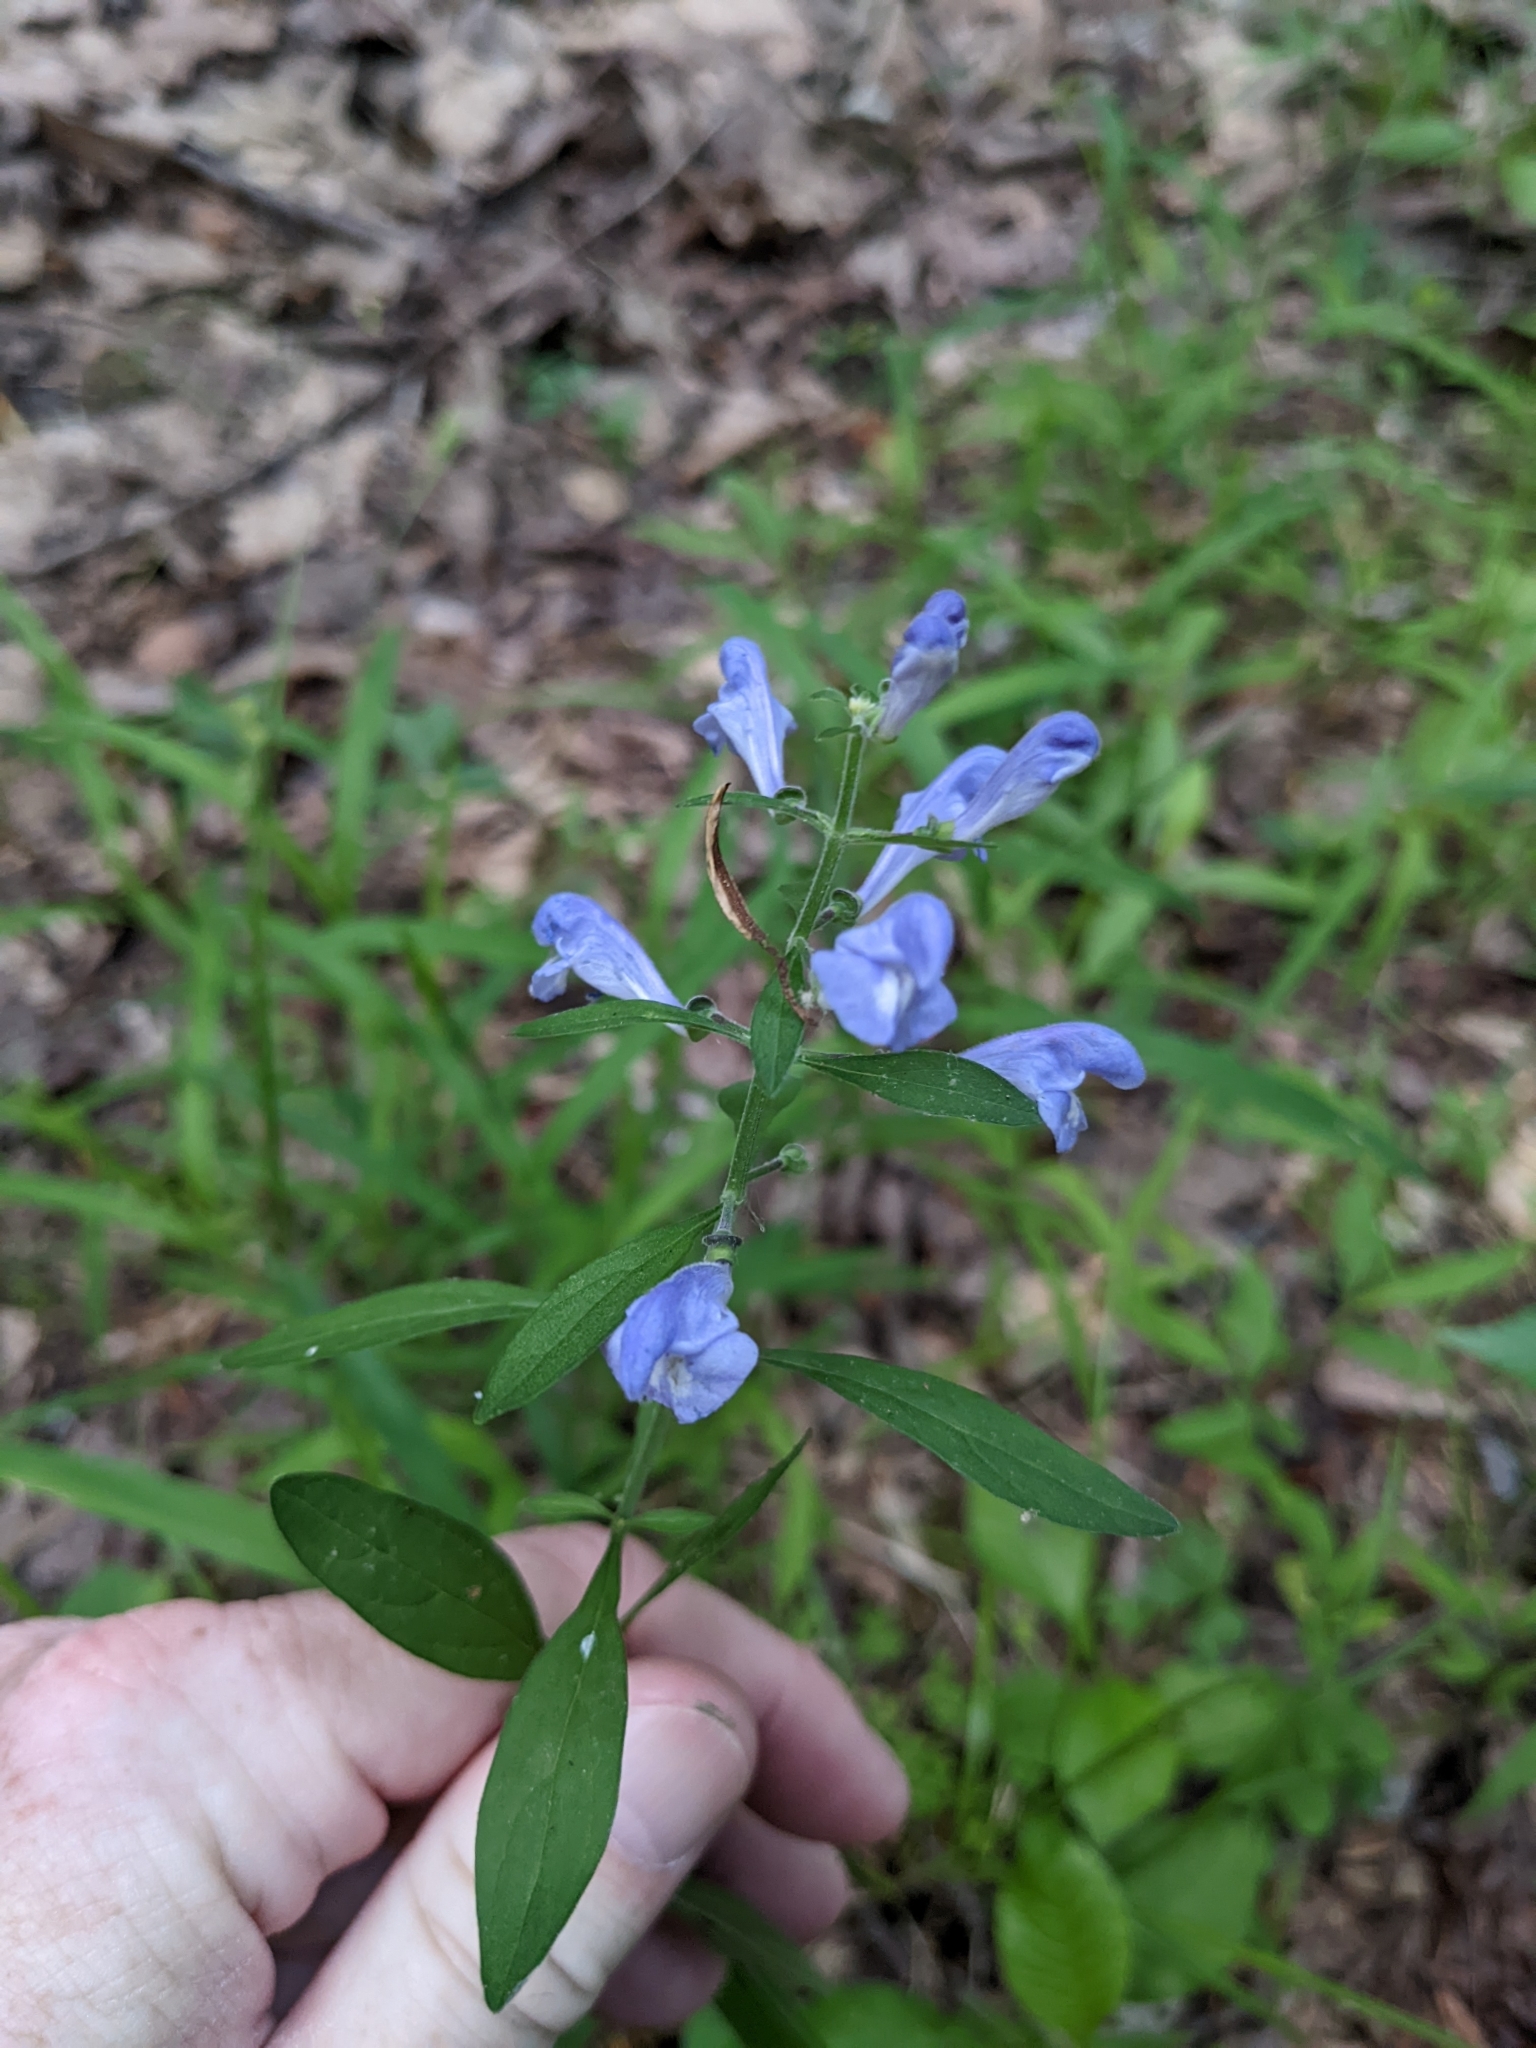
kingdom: Plantae
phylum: Tracheophyta
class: Magnoliopsida
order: Lamiales
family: Lamiaceae
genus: Scutellaria
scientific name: Scutellaria integrifolia
